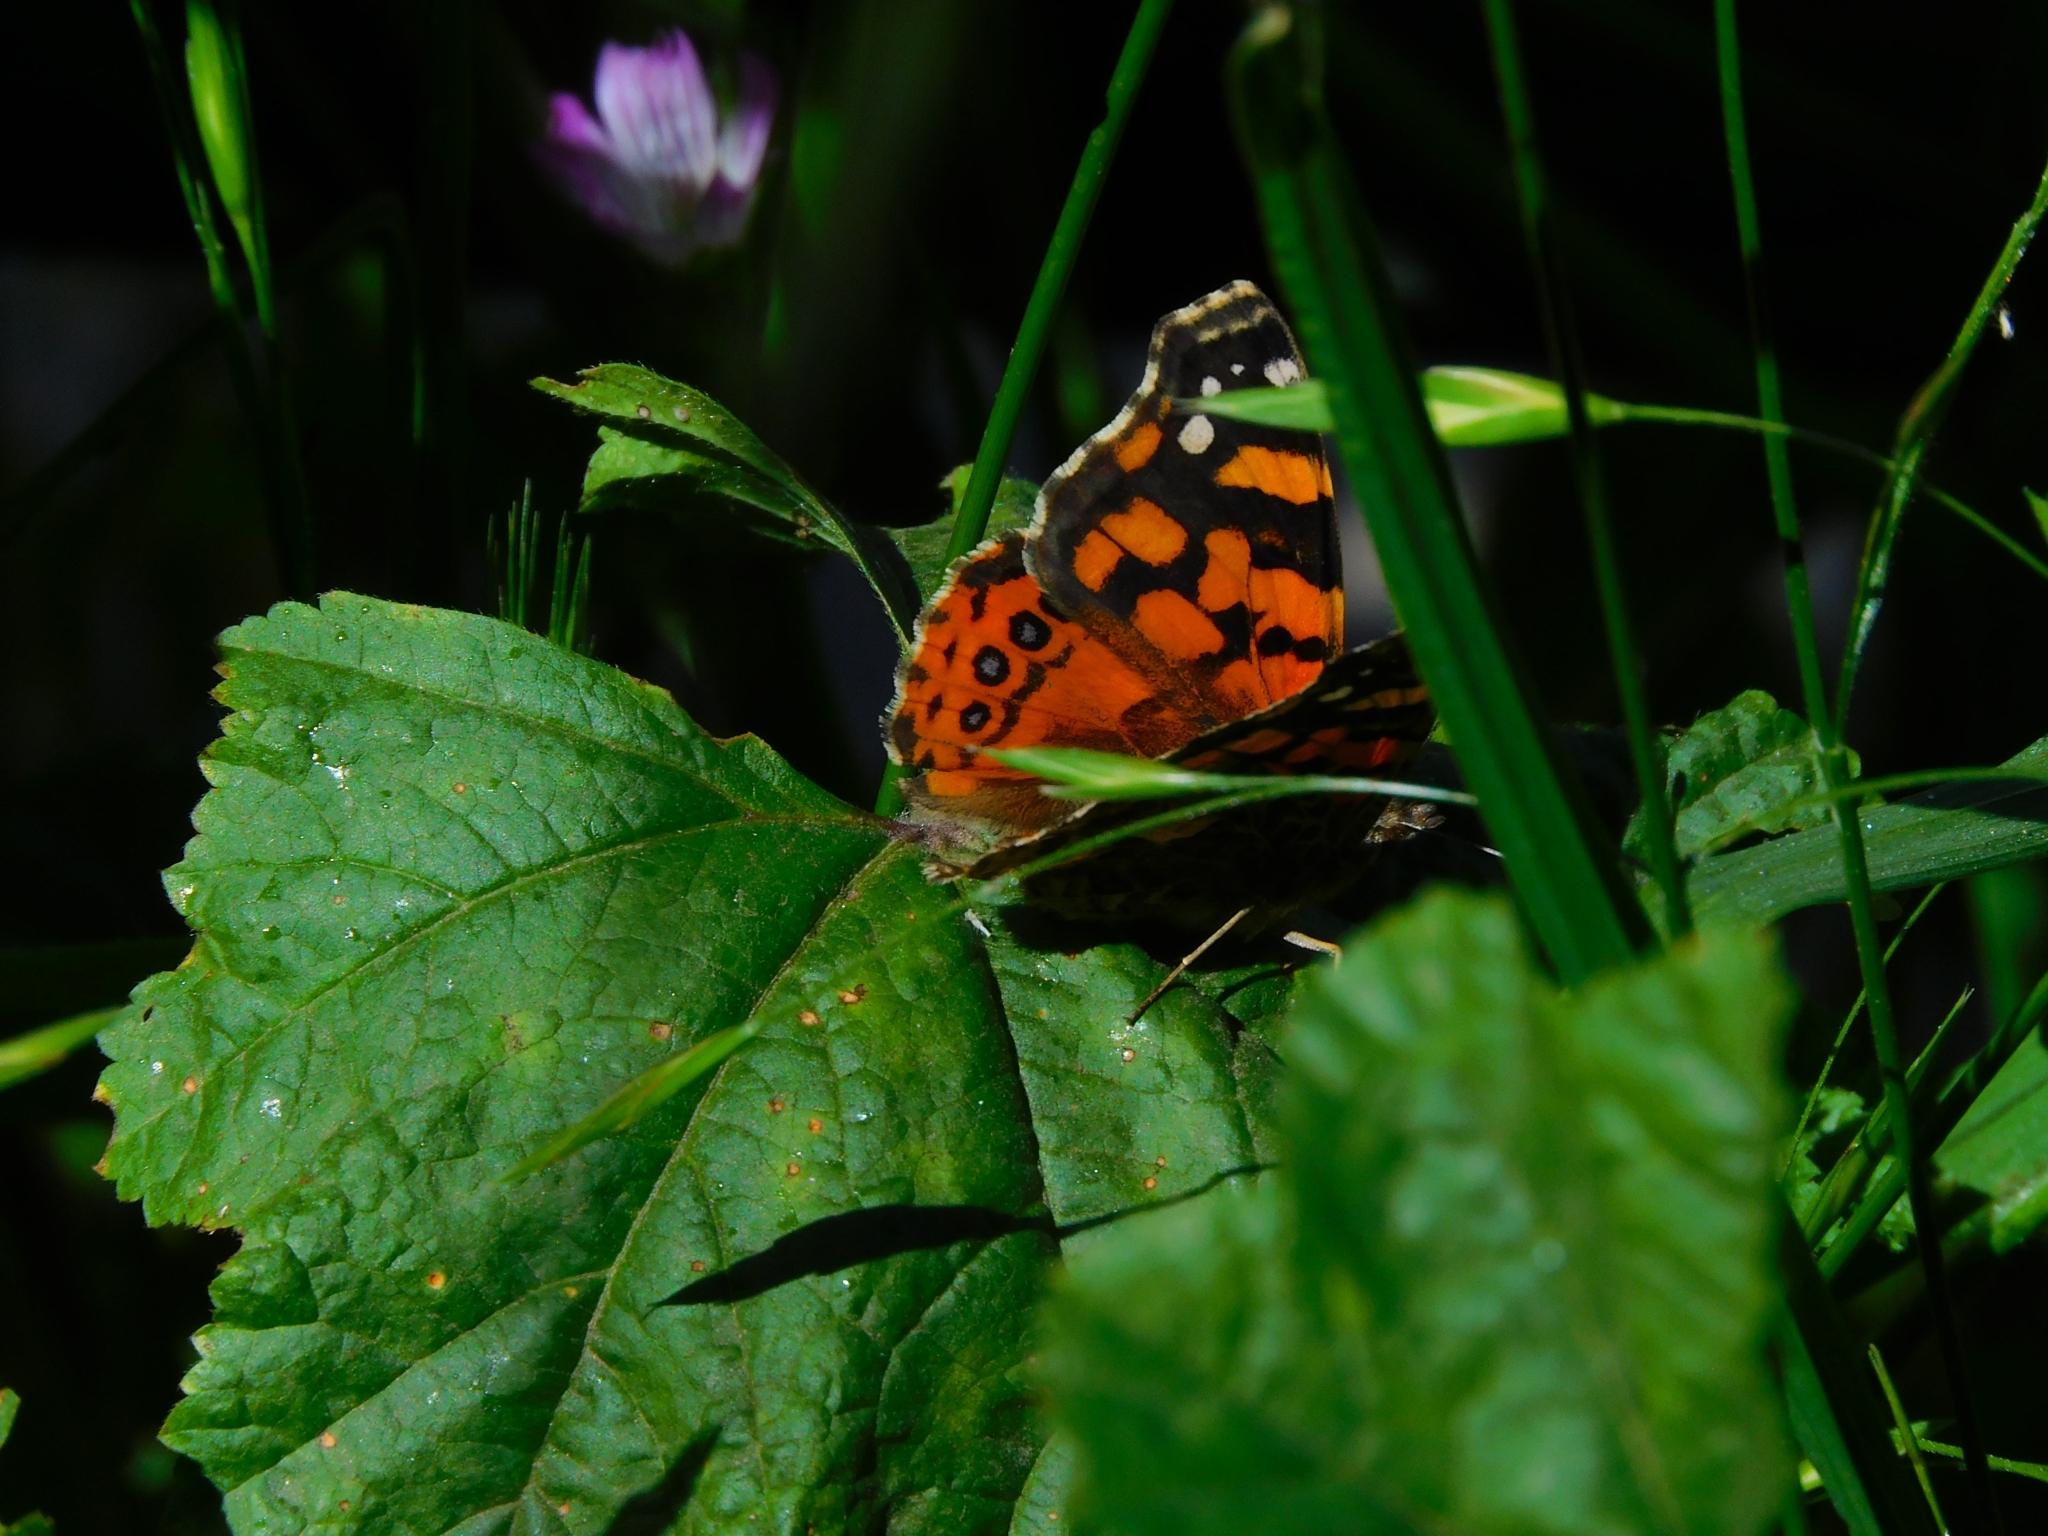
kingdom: Animalia
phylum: Arthropoda
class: Insecta
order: Lepidoptera
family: Nymphalidae
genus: Vanessa
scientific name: Vanessa carye
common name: Subtropical lady
